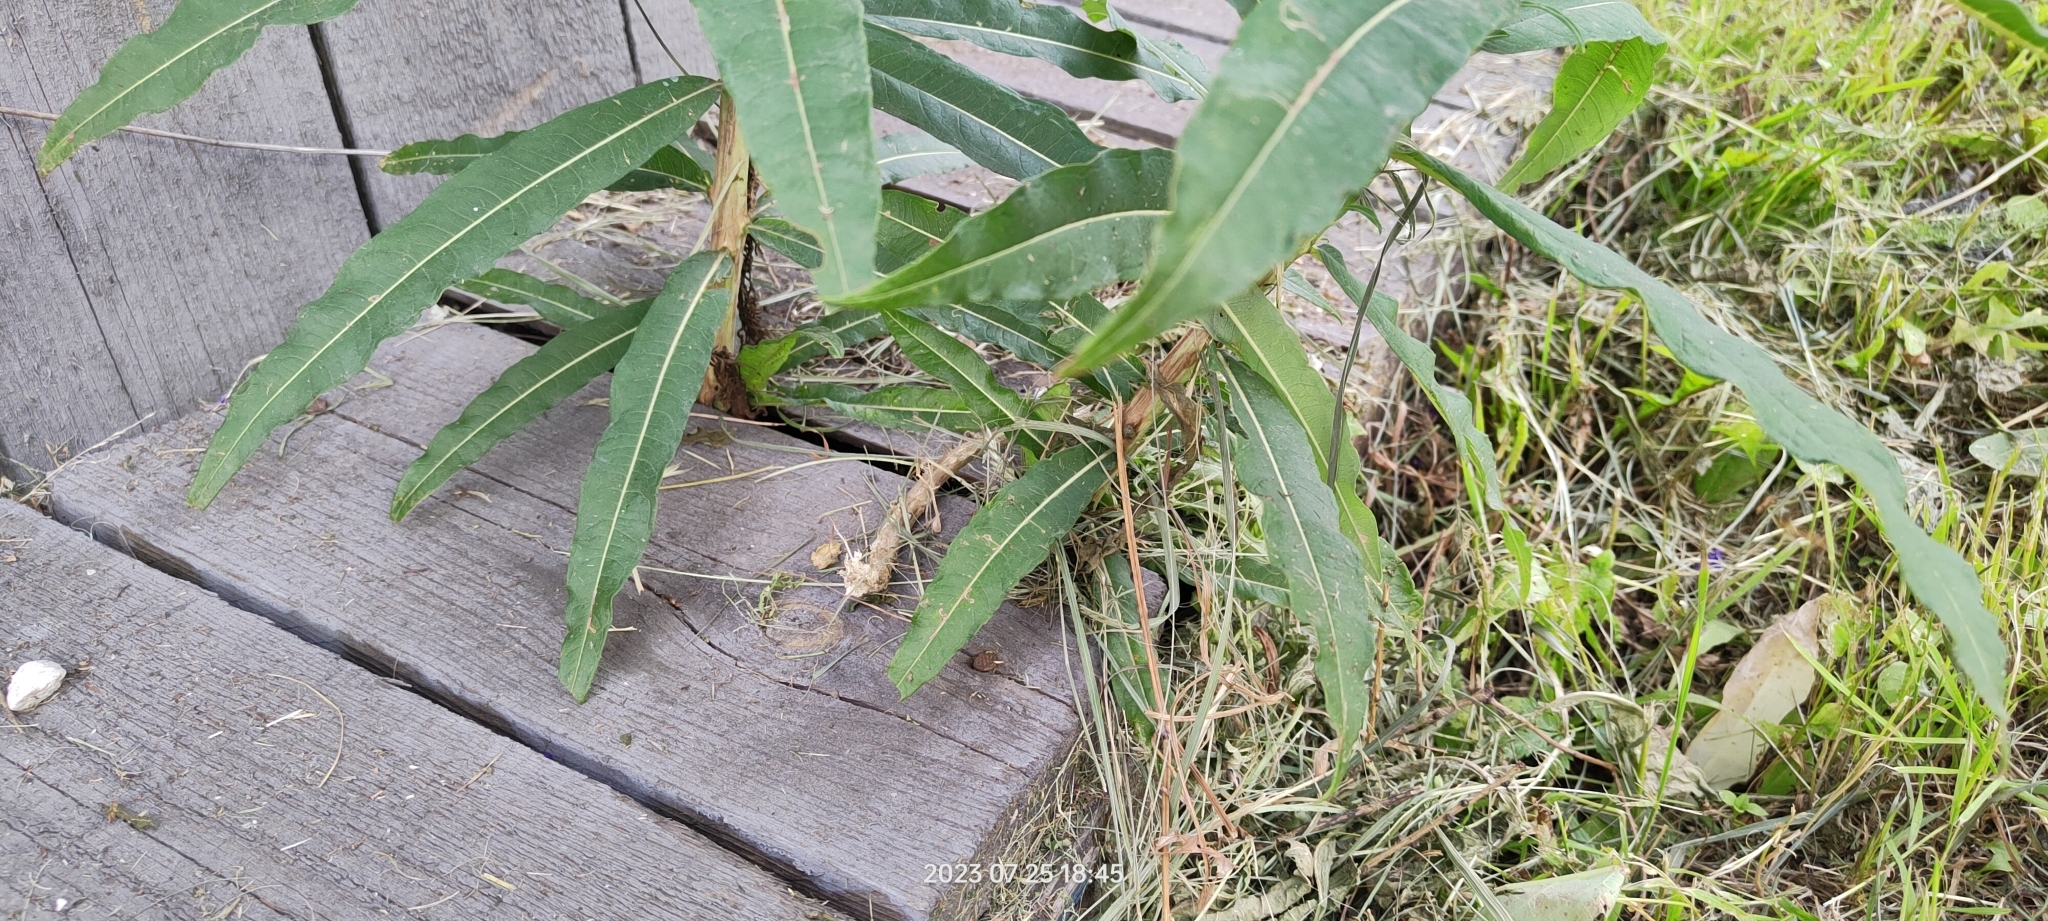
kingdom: Plantae
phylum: Tracheophyta
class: Magnoliopsida
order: Myrtales
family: Onagraceae
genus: Chamaenerion
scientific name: Chamaenerion angustifolium
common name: Fireweed
